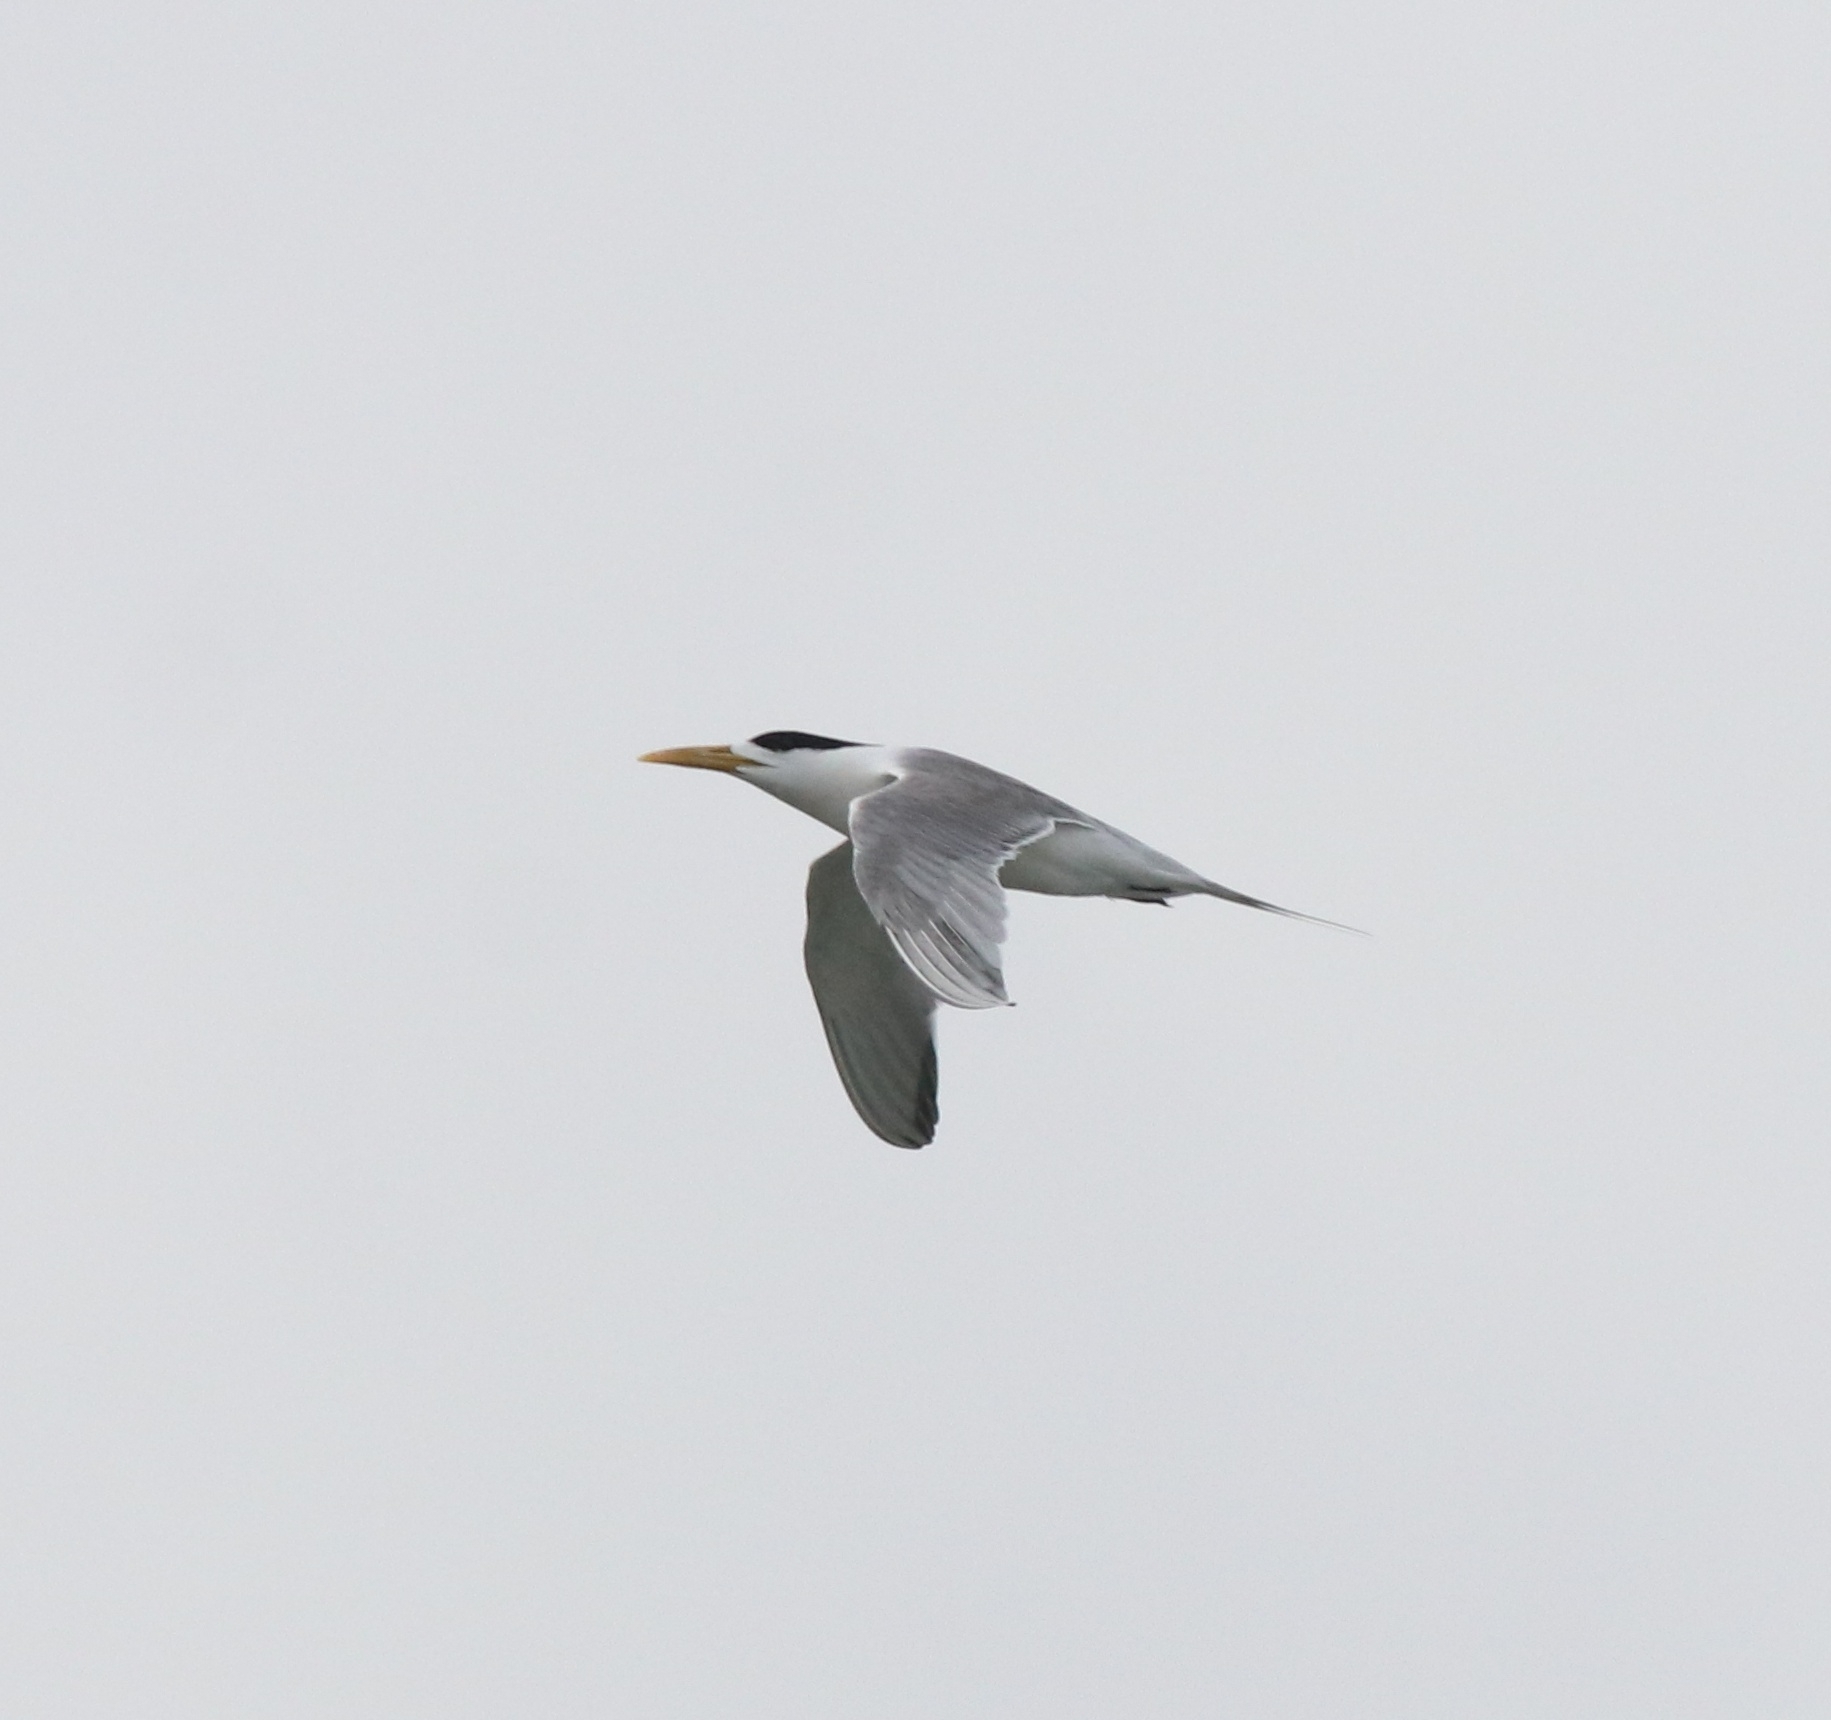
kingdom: Animalia
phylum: Chordata
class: Aves
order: Charadriiformes
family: Laridae
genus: Thalasseus
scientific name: Thalasseus bergii
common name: Greater crested tern
